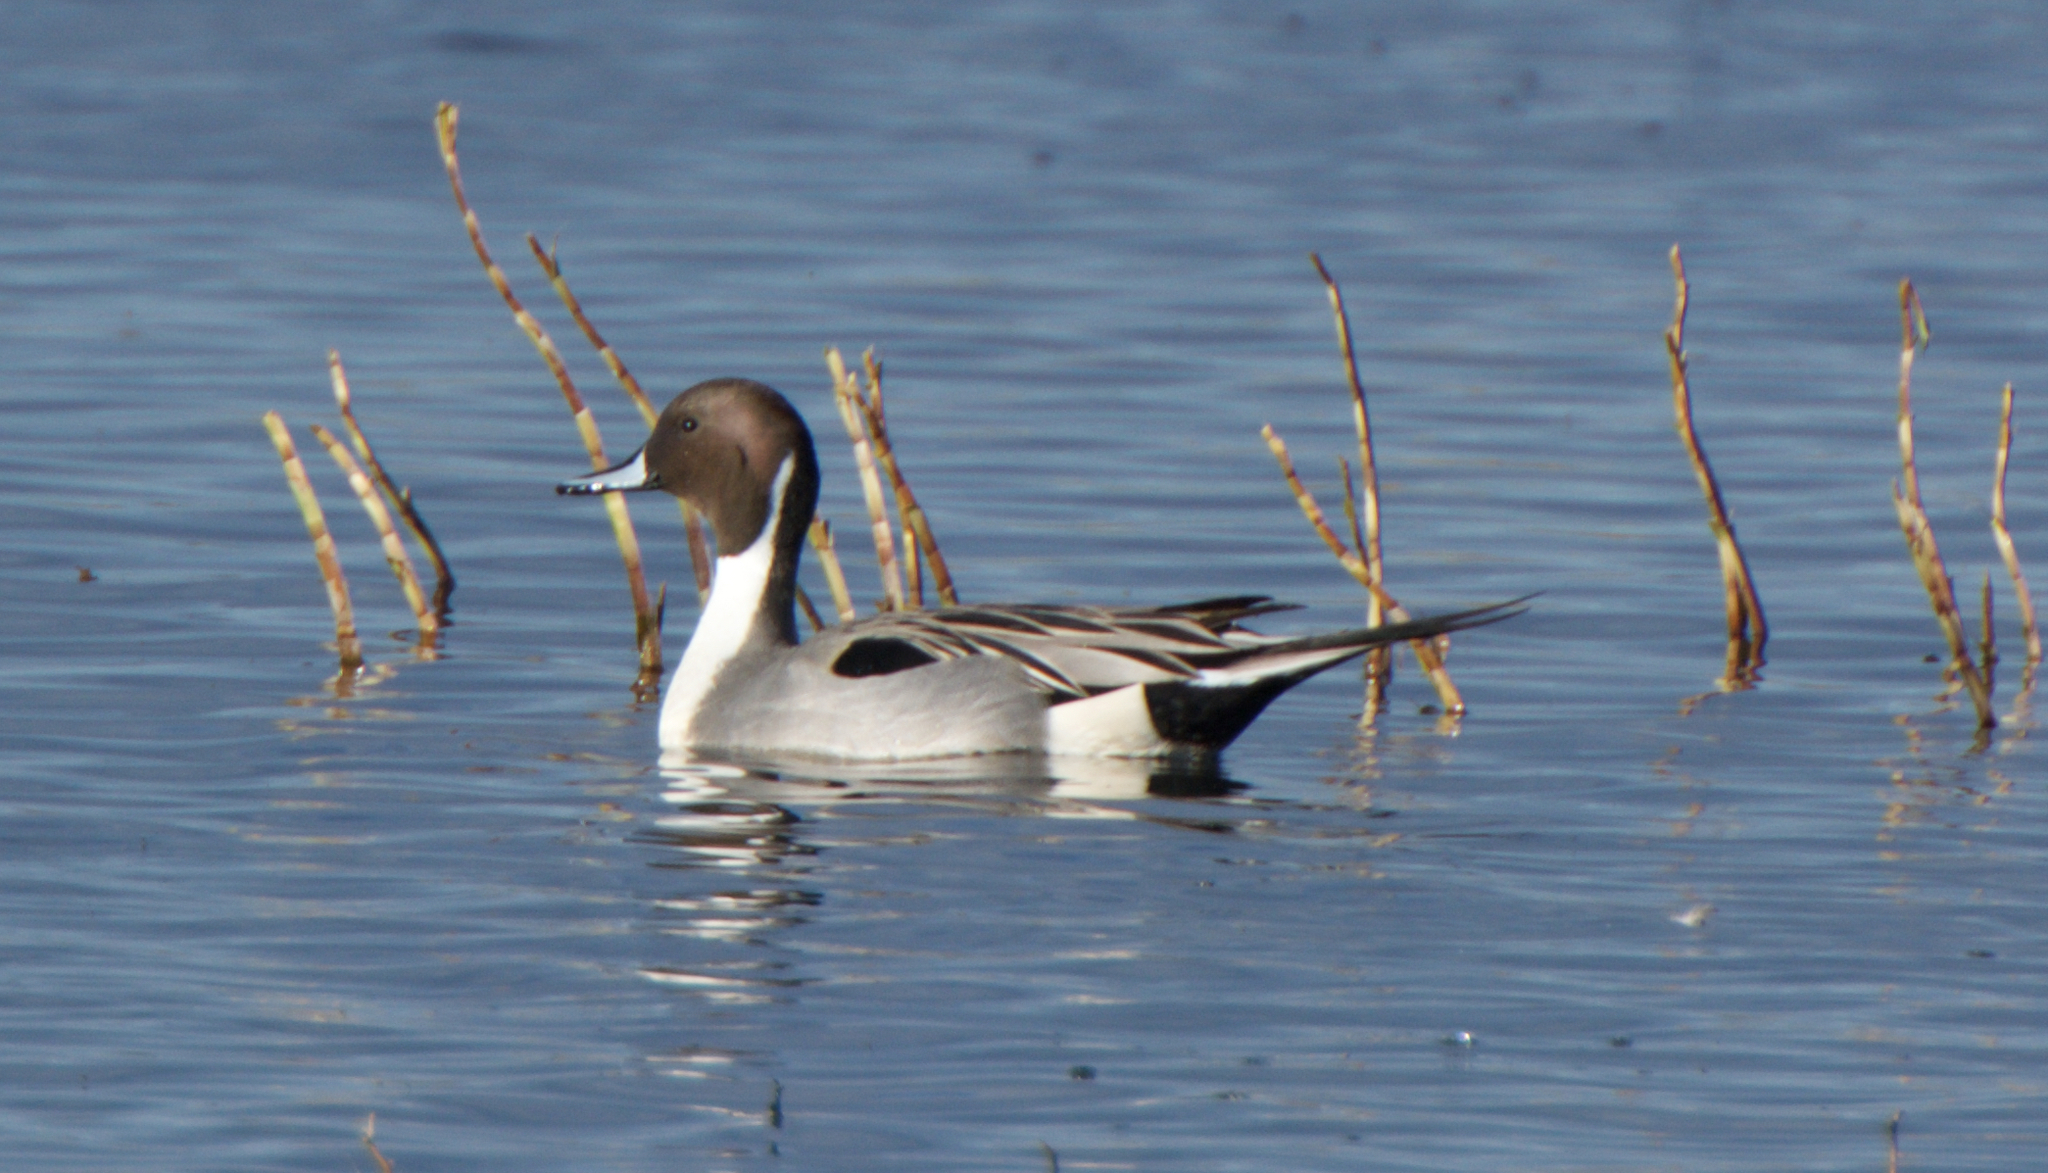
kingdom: Animalia
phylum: Chordata
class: Aves
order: Anseriformes
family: Anatidae
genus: Anas
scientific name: Anas acuta
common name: Northern pintail
